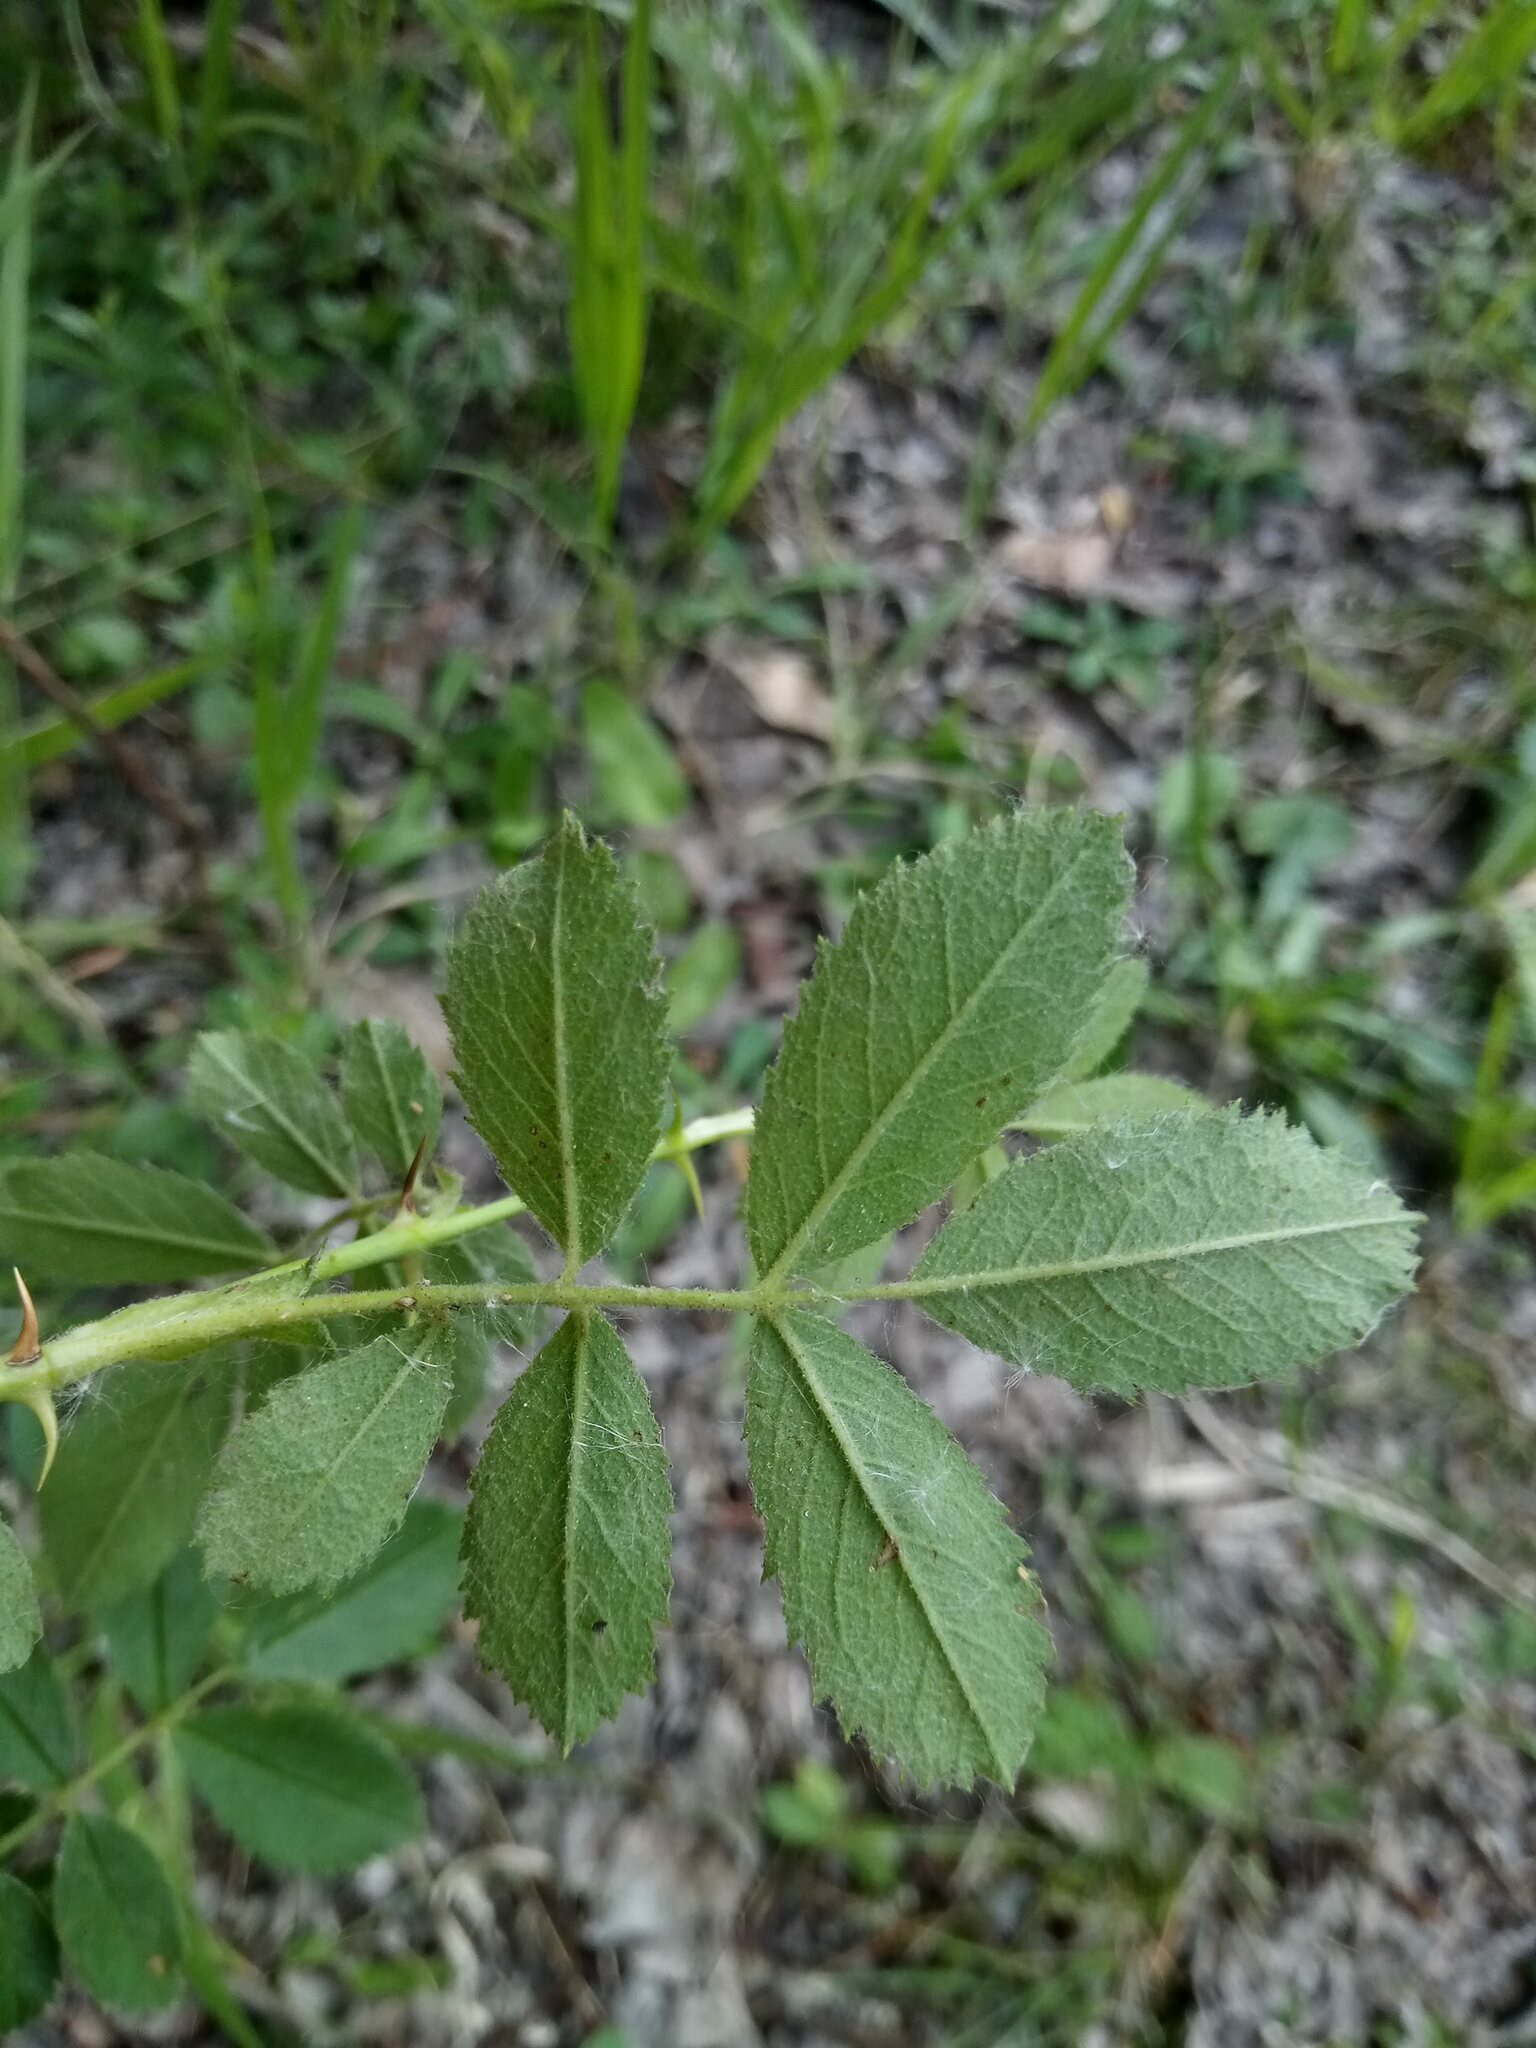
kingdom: Plantae
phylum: Tracheophyta
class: Magnoliopsida
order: Rosales
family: Rosaceae
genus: Rosa
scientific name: Rosa inodora
